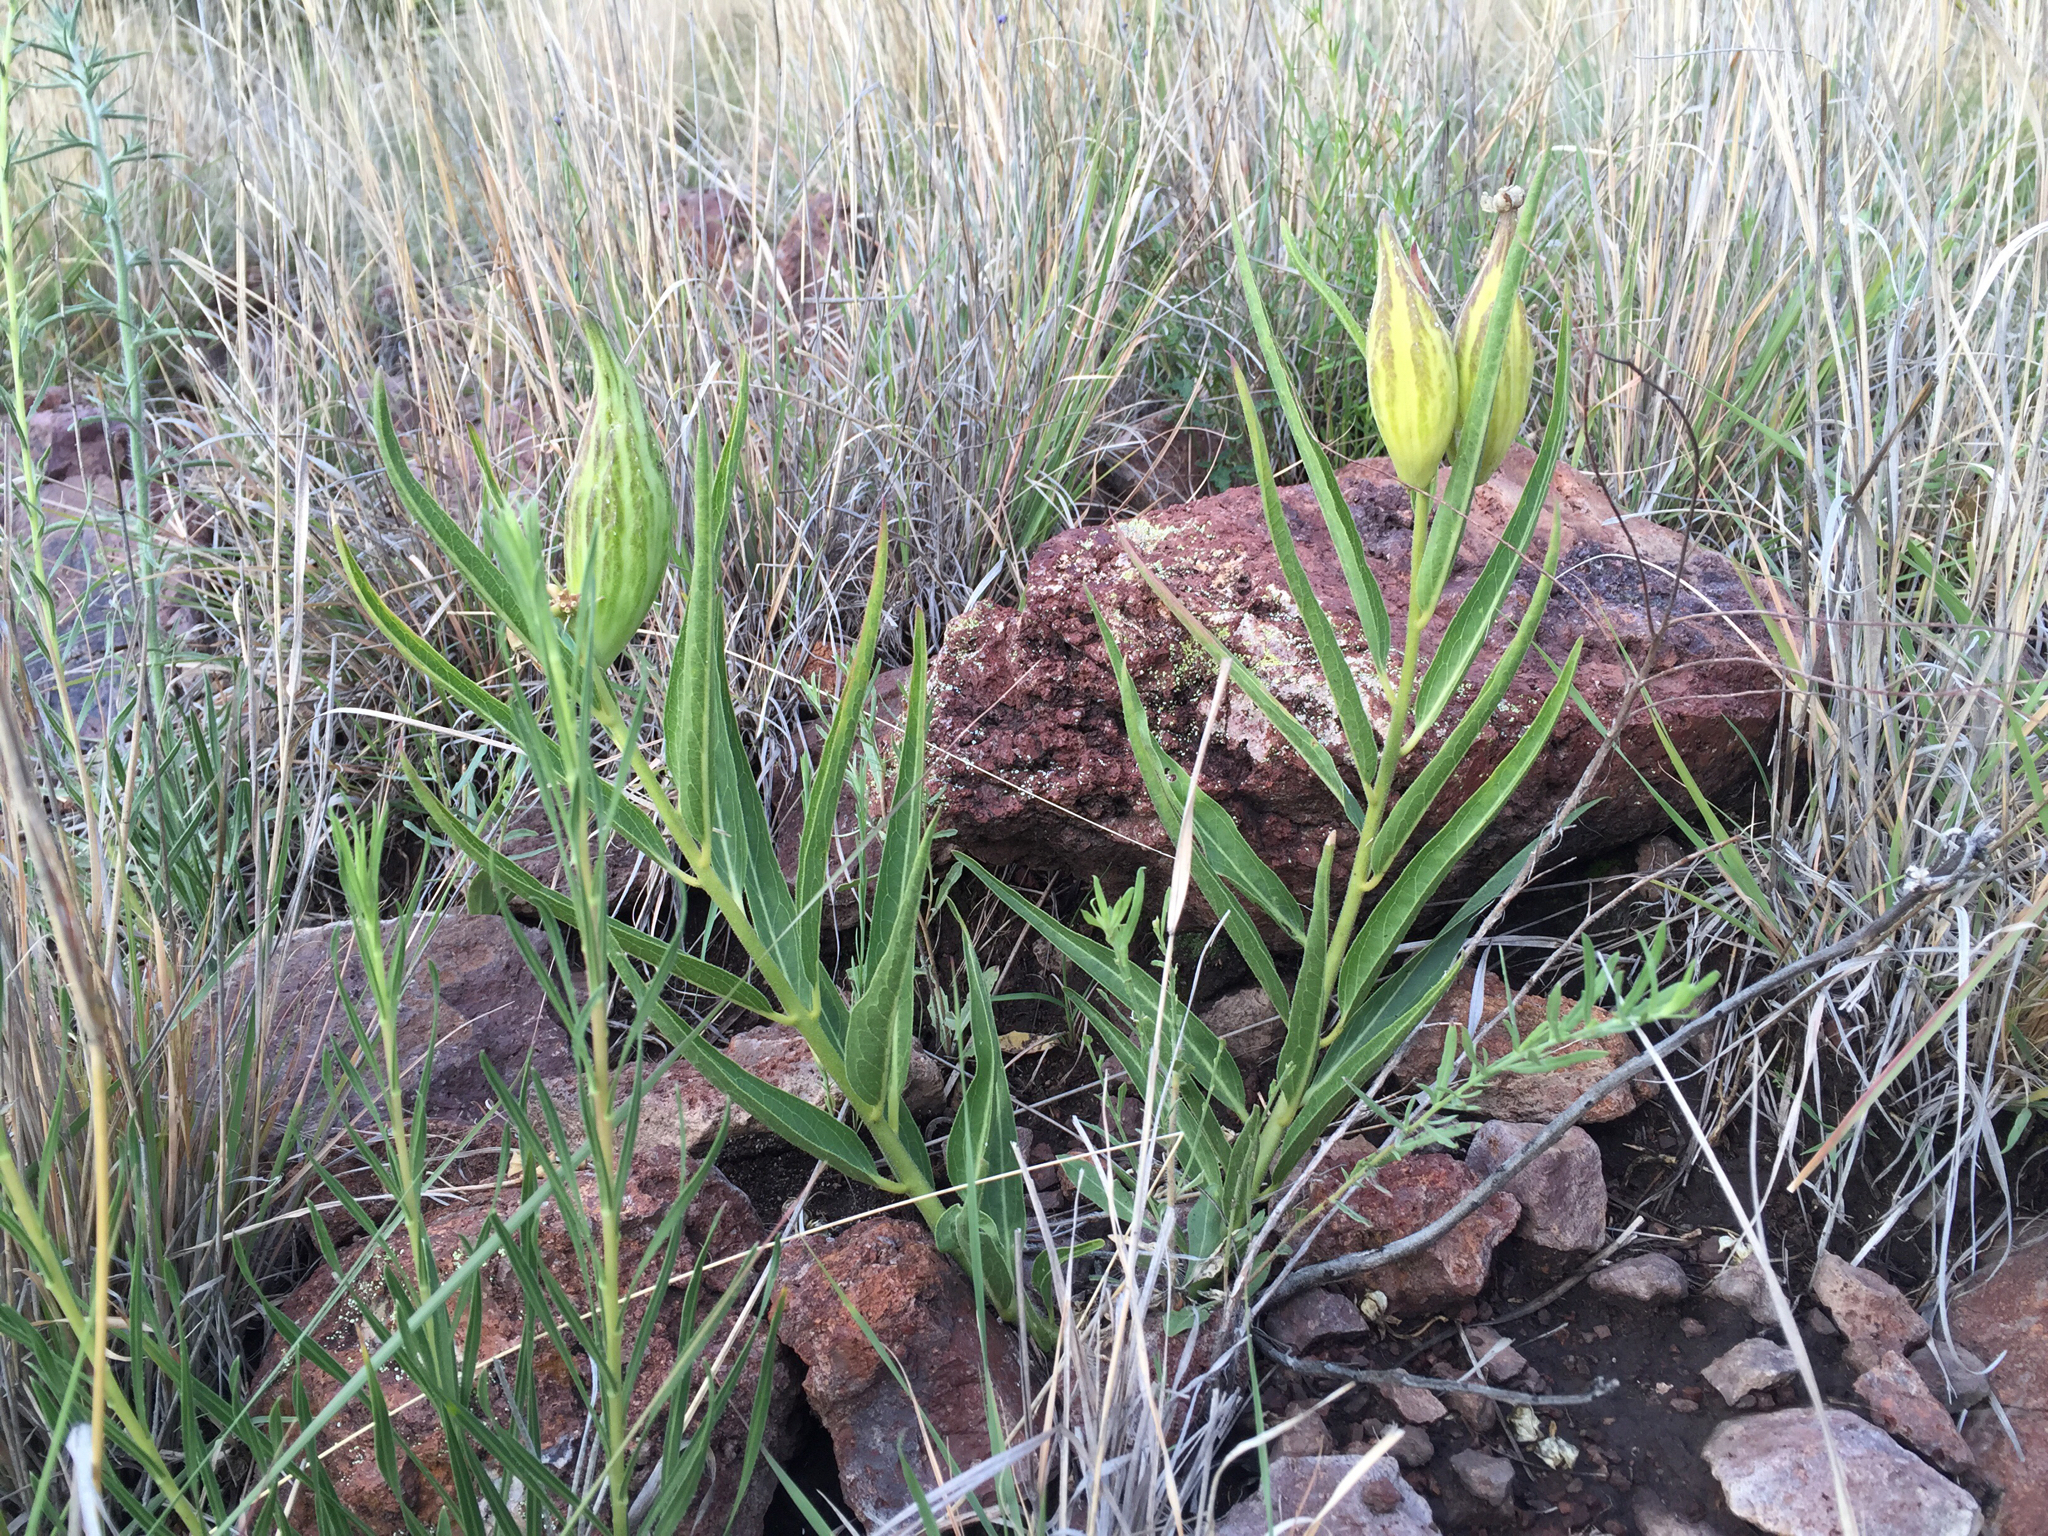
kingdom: Plantae
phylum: Tracheophyta
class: Magnoliopsida
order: Gentianales
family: Apocynaceae
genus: Asclepias
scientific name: Asclepias asperula
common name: Antelope horns
